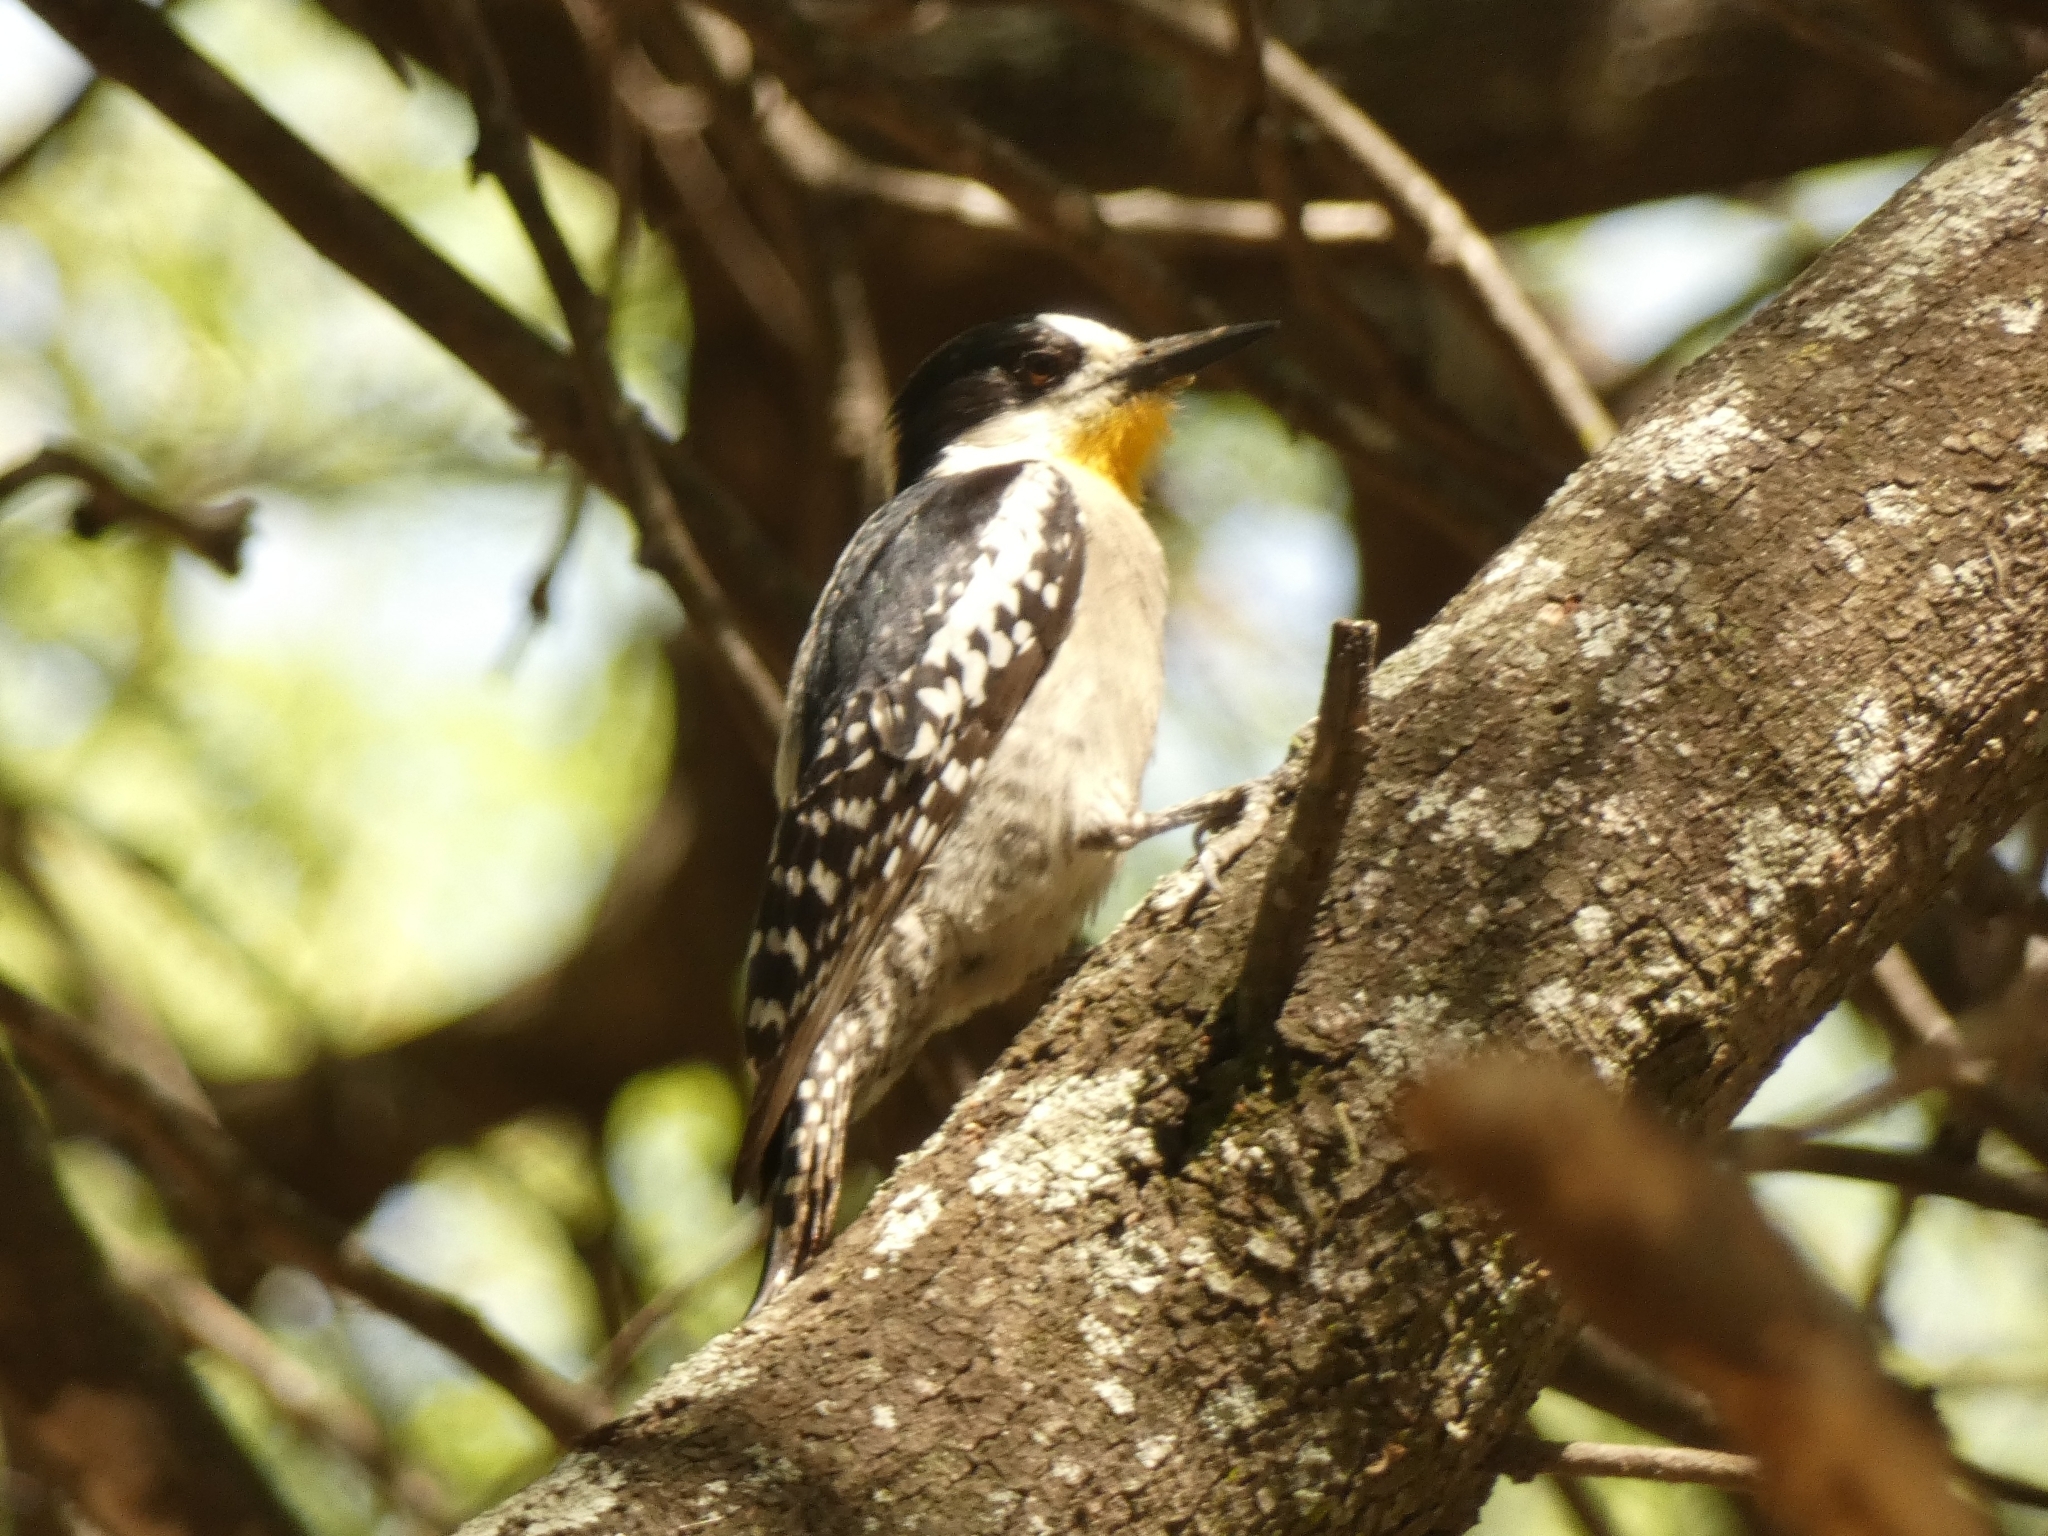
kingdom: Animalia
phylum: Chordata
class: Aves
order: Piciformes
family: Picidae
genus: Melanerpes
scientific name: Melanerpes cactorum
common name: White-fronted woodpecker
